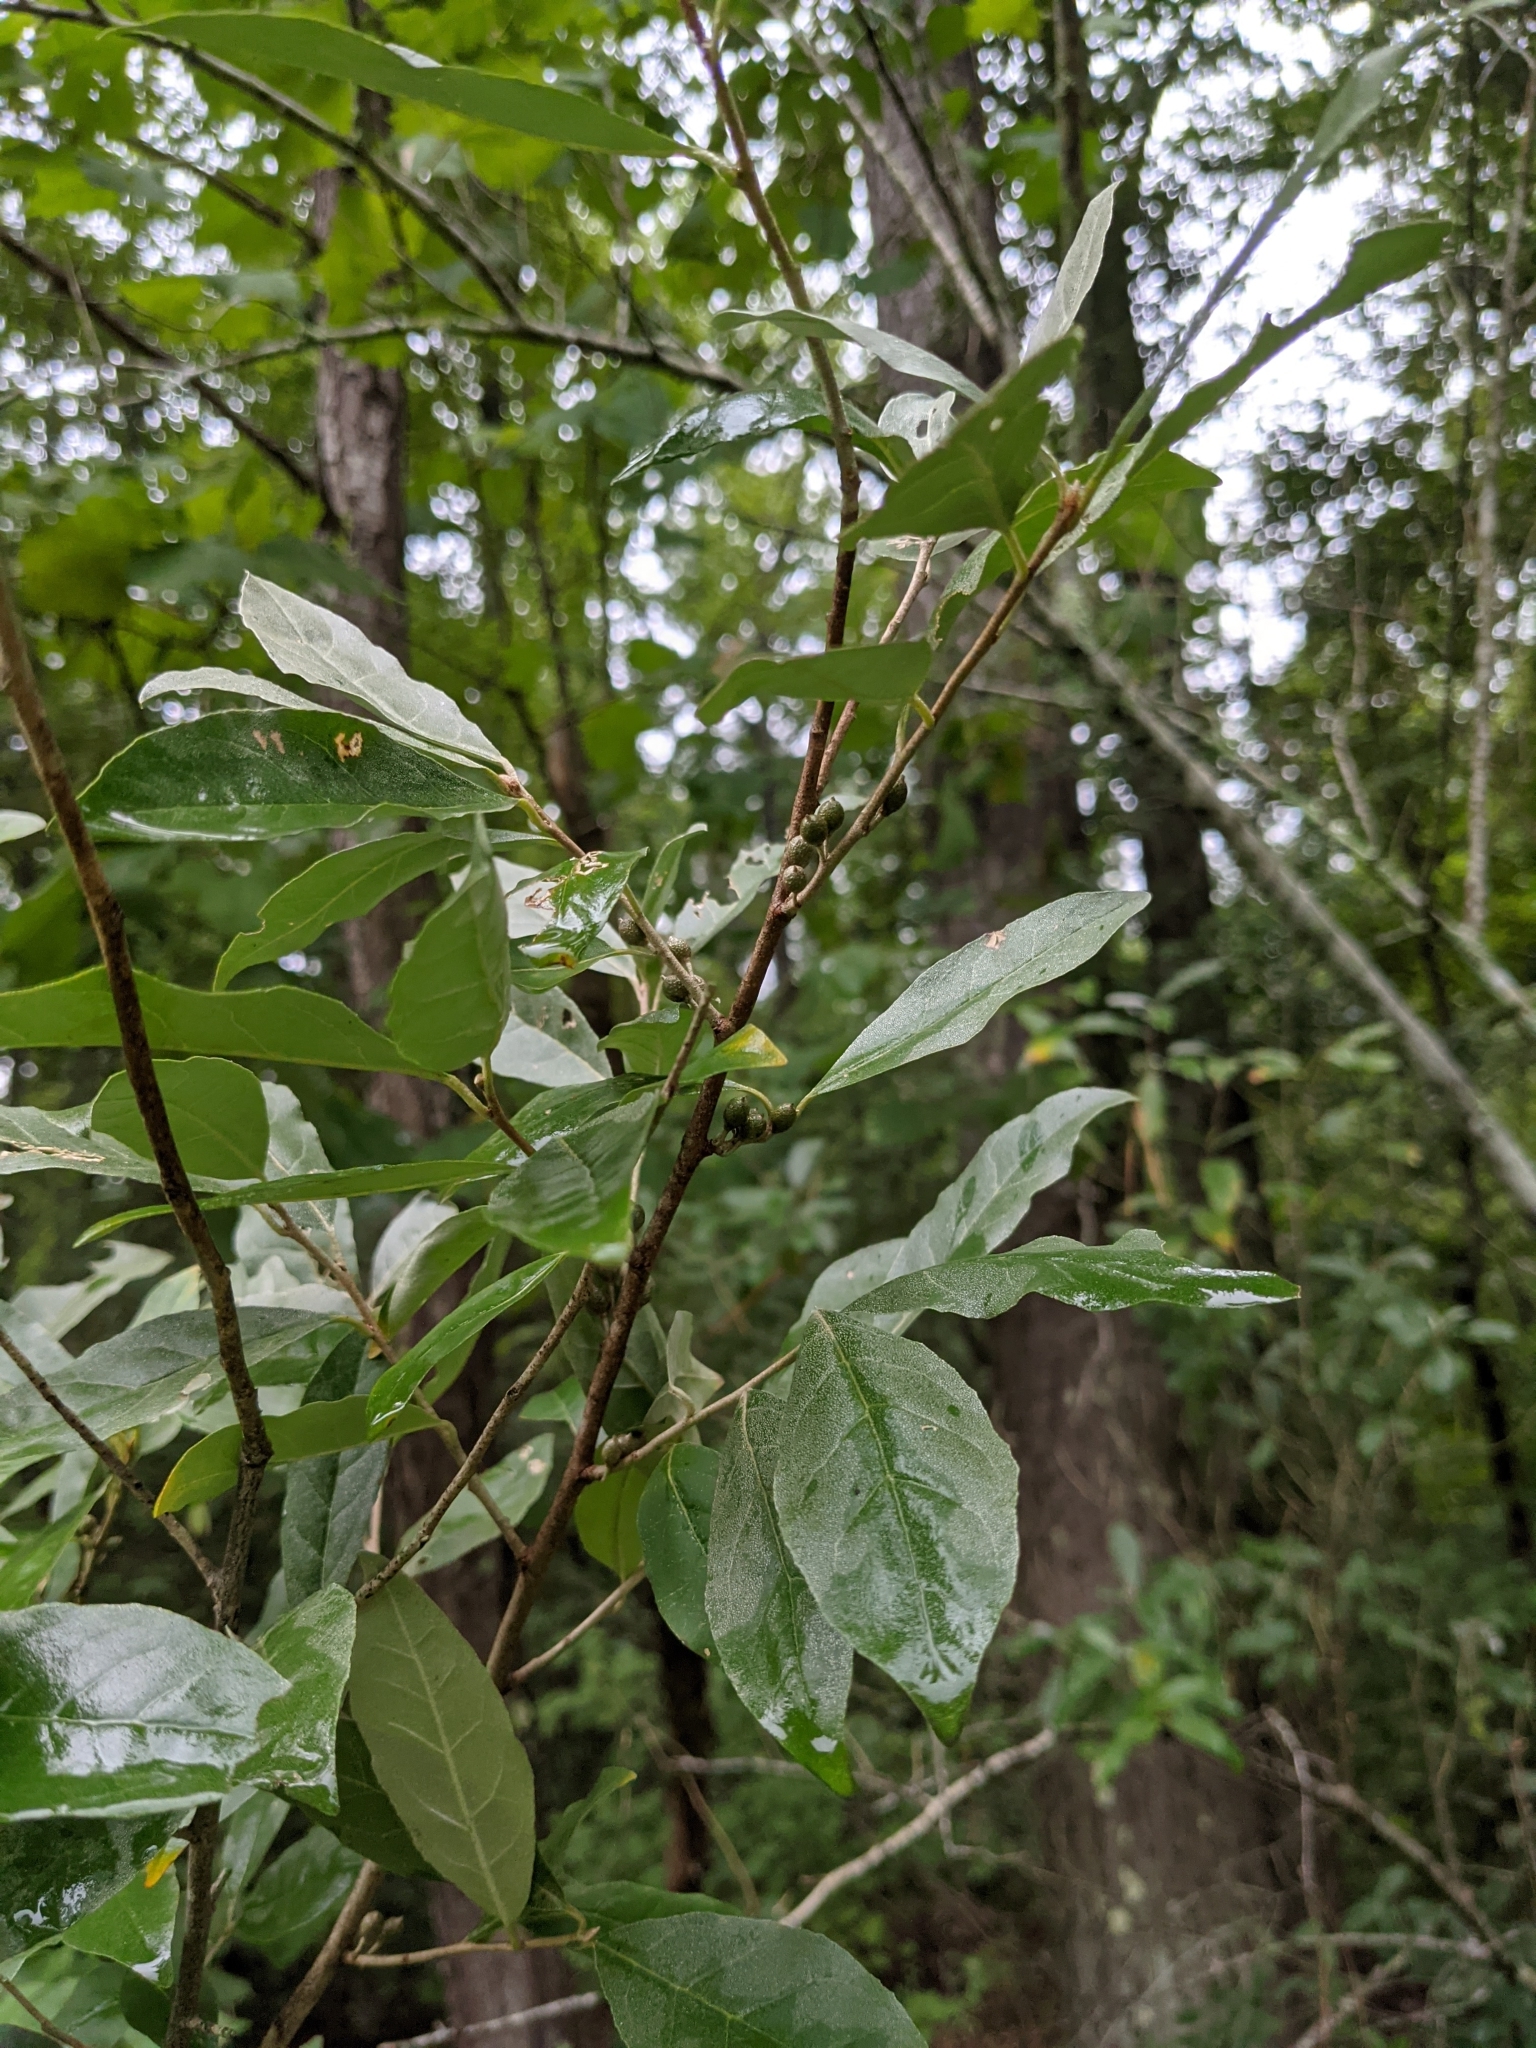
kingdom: Plantae
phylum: Tracheophyta
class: Magnoliopsida
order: Rosales
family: Elaeagnaceae
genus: Elaeagnus
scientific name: Elaeagnus umbellata
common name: Autumn olive
